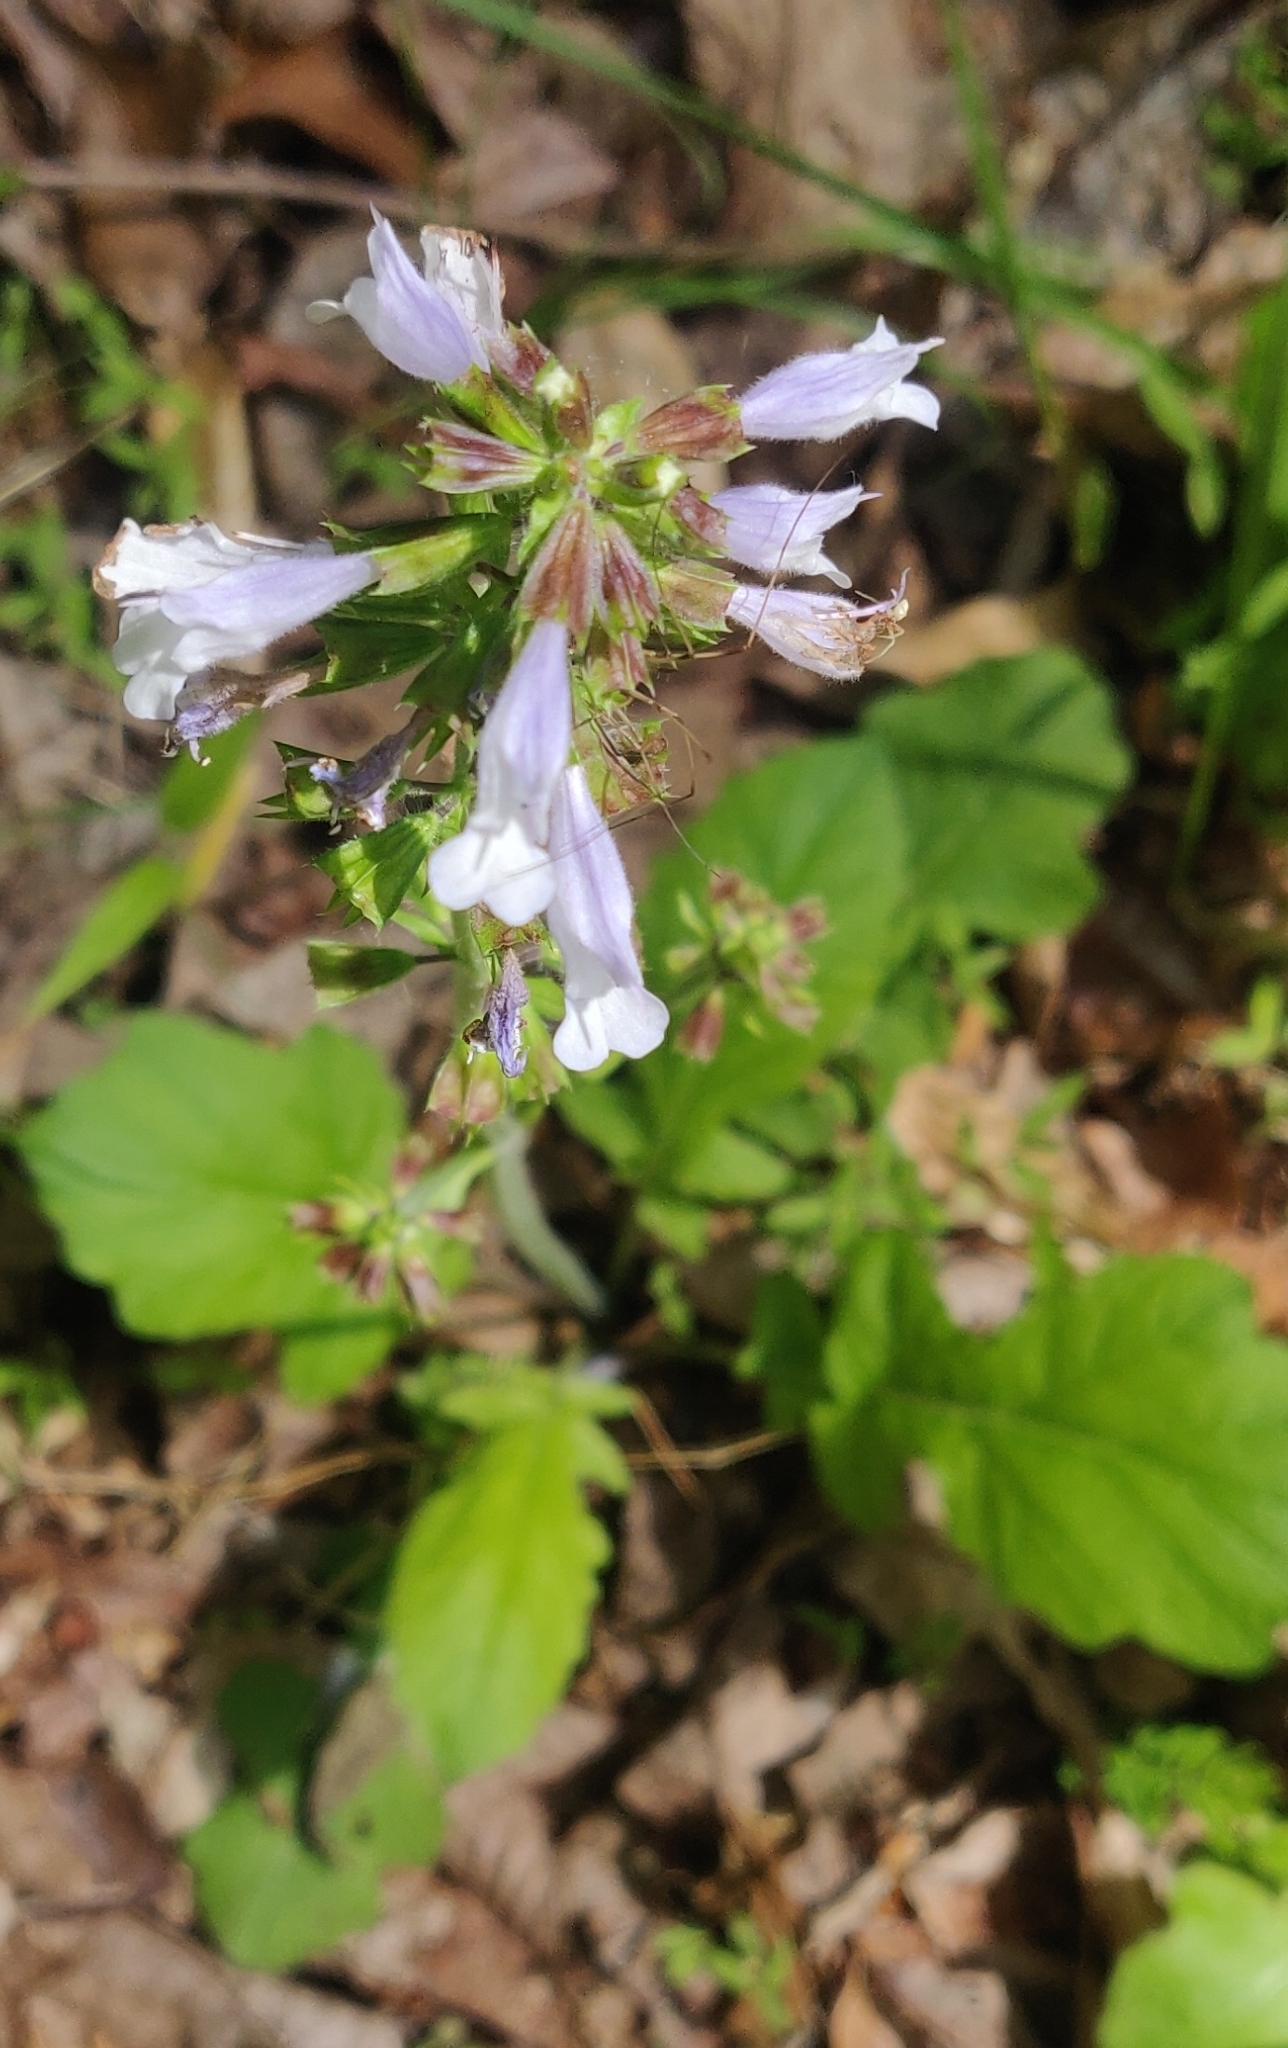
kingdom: Plantae
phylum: Tracheophyta
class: Magnoliopsida
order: Lamiales
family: Lamiaceae
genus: Salvia
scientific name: Salvia lyrata
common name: Cancerweed
